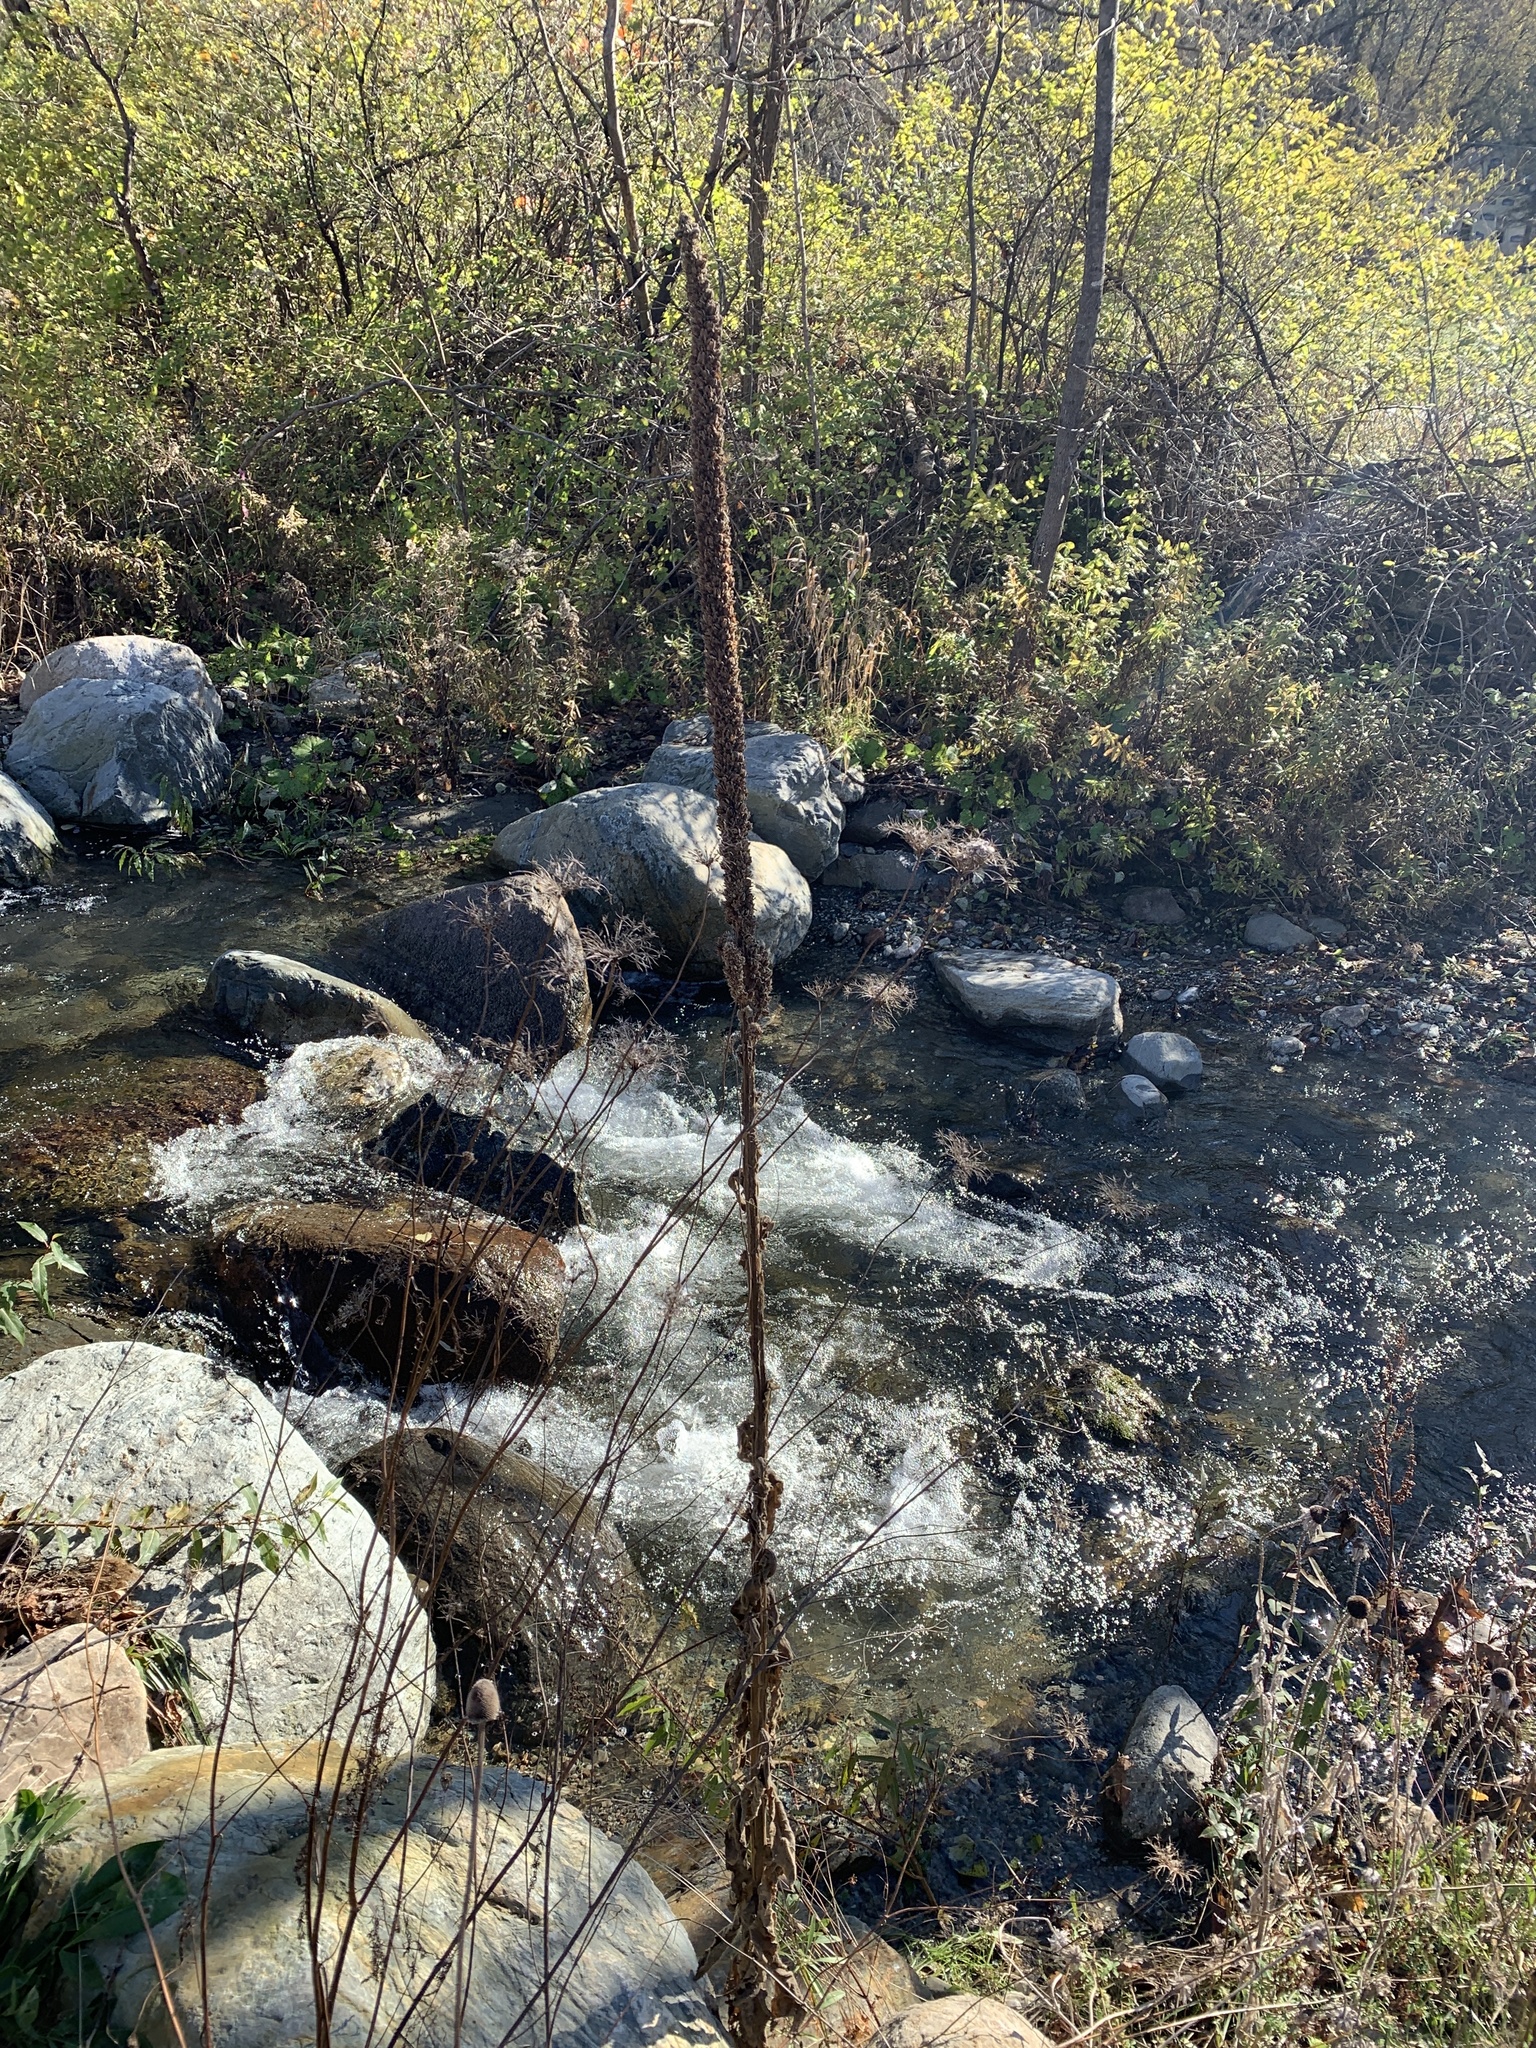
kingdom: Plantae
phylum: Tracheophyta
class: Magnoliopsida
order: Lamiales
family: Scrophulariaceae
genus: Verbascum
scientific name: Verbascum thapsus
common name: Common mullein
